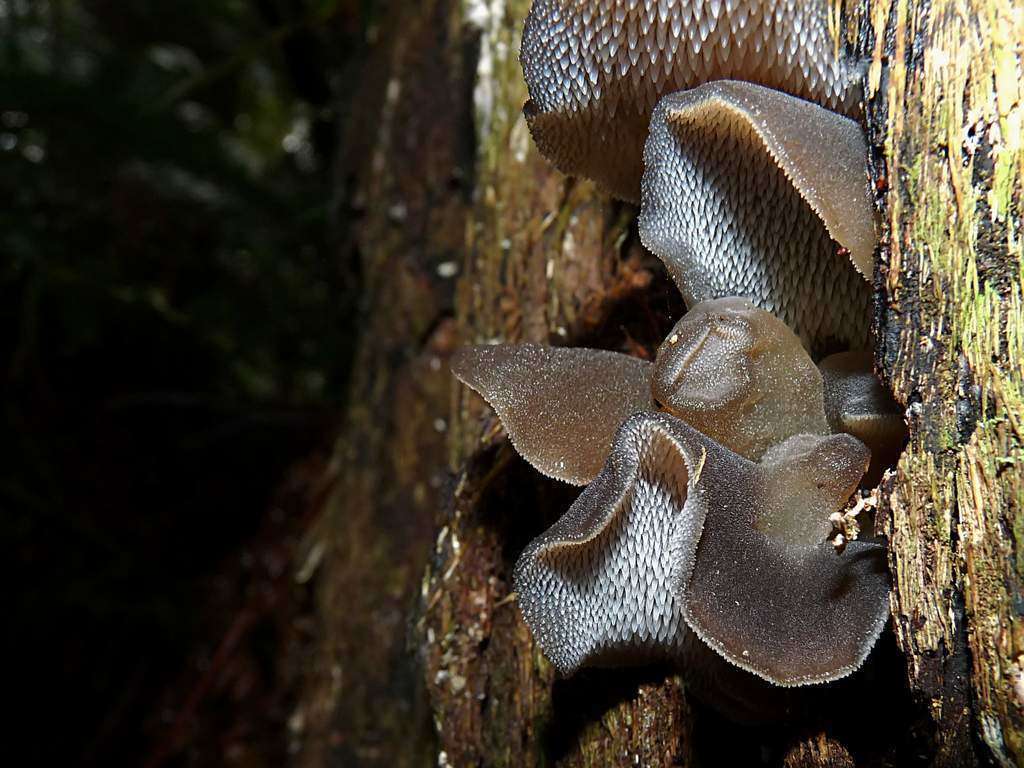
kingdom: Fungi
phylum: Basidiomycota
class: Agaricomycetes
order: Auriculariales
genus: Pseudohydnum
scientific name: Pseudohydnum gelatinosum
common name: Jelly tongue
